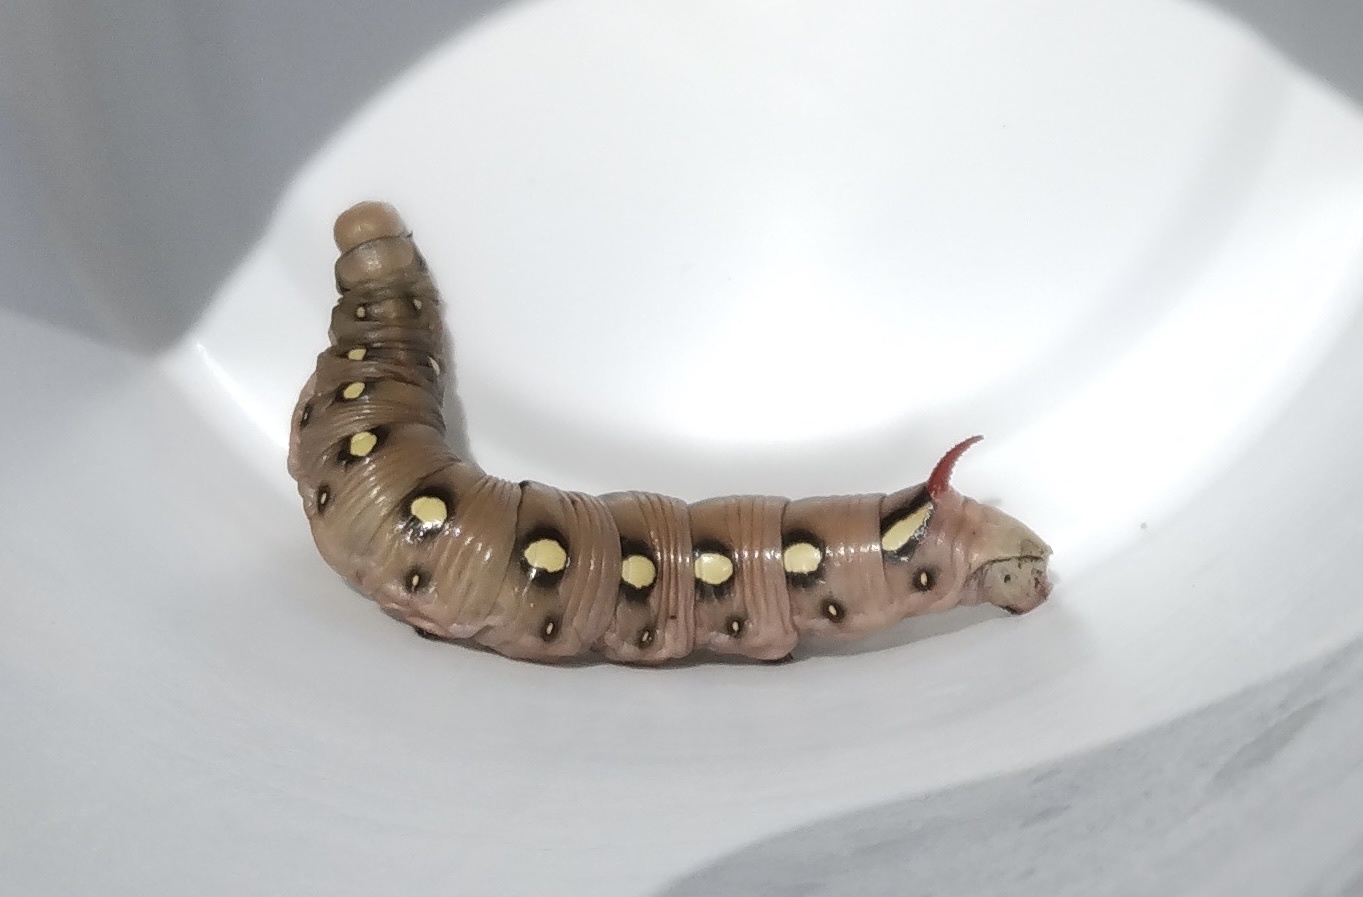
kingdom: Animalia
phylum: Arthropoda
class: Insecta
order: Lepidoptera
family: Sphingidae
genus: Hyles
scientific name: Hyles gallii
